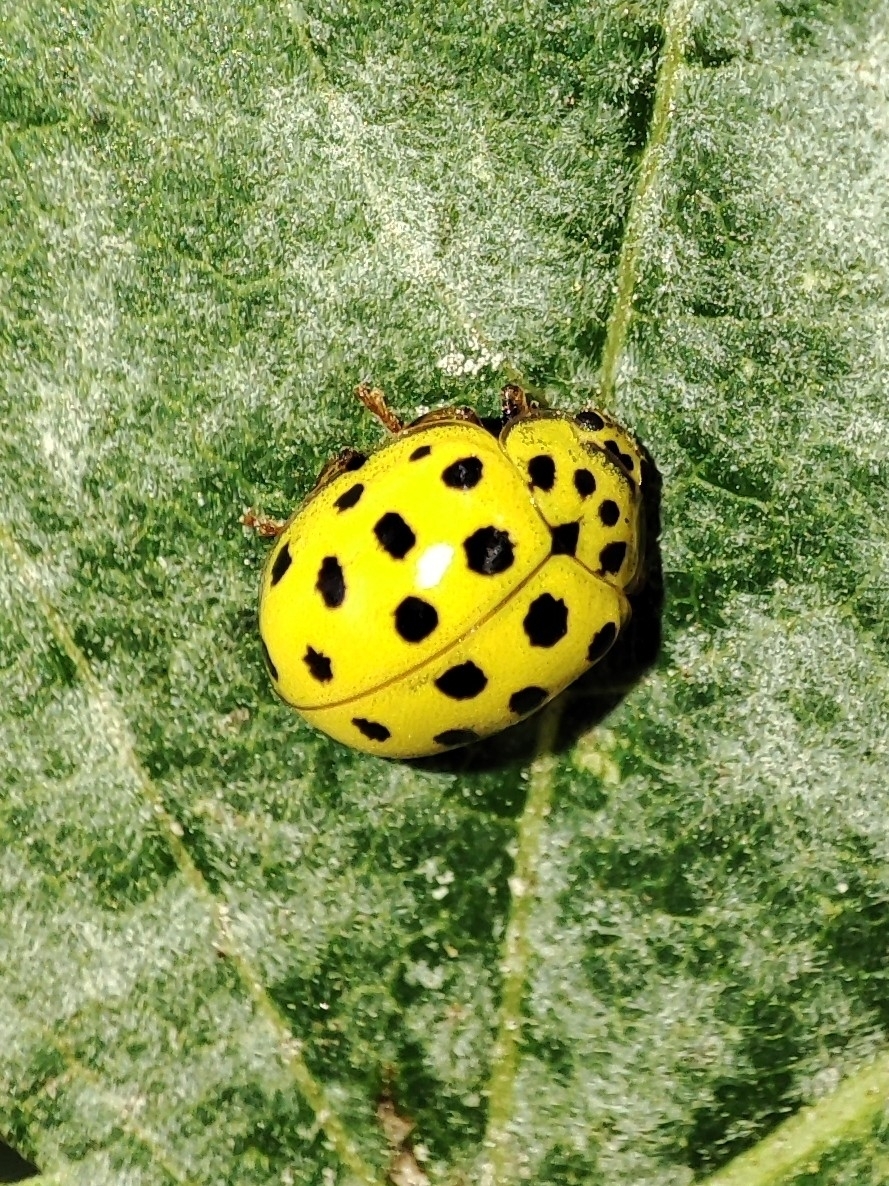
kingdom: Animalia
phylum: Arthropoda
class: Insecta
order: Coleoptera
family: Coccinellidae
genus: Psyllobora
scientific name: Psyllobora vigintiduopunctata
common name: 22-spot ladybird
